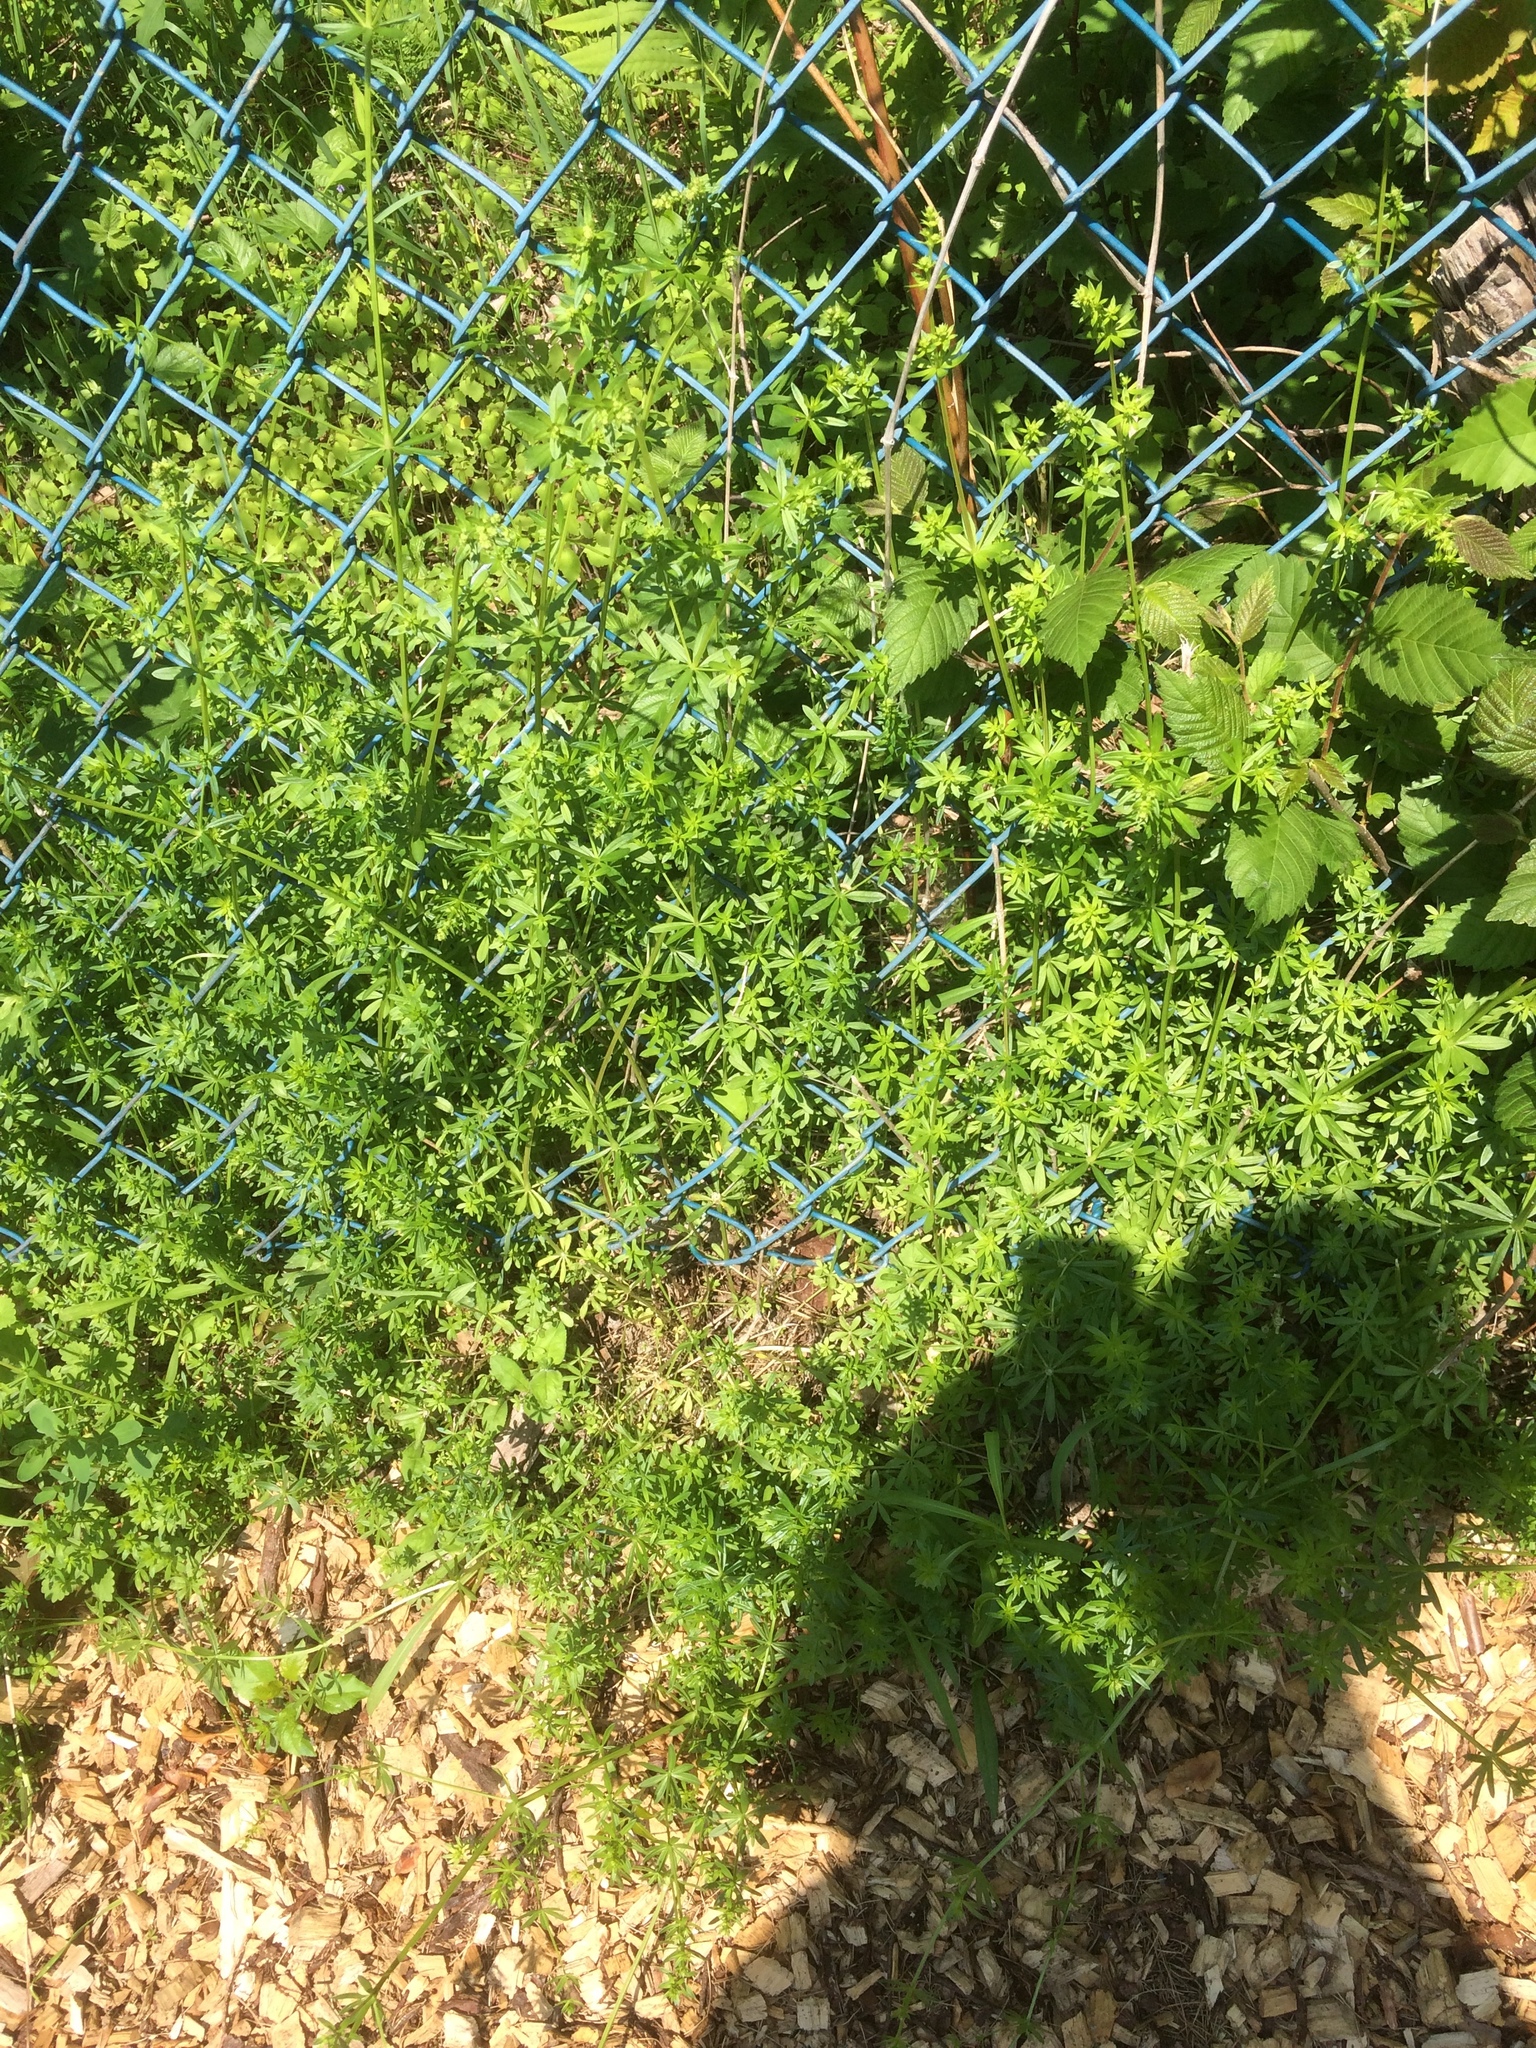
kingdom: Plantae
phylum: Tracheophyta
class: Magnoliopsida
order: Gentianales
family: Rubiaceae
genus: Galium
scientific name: Galium mollugo
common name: Hedge bedstraw
